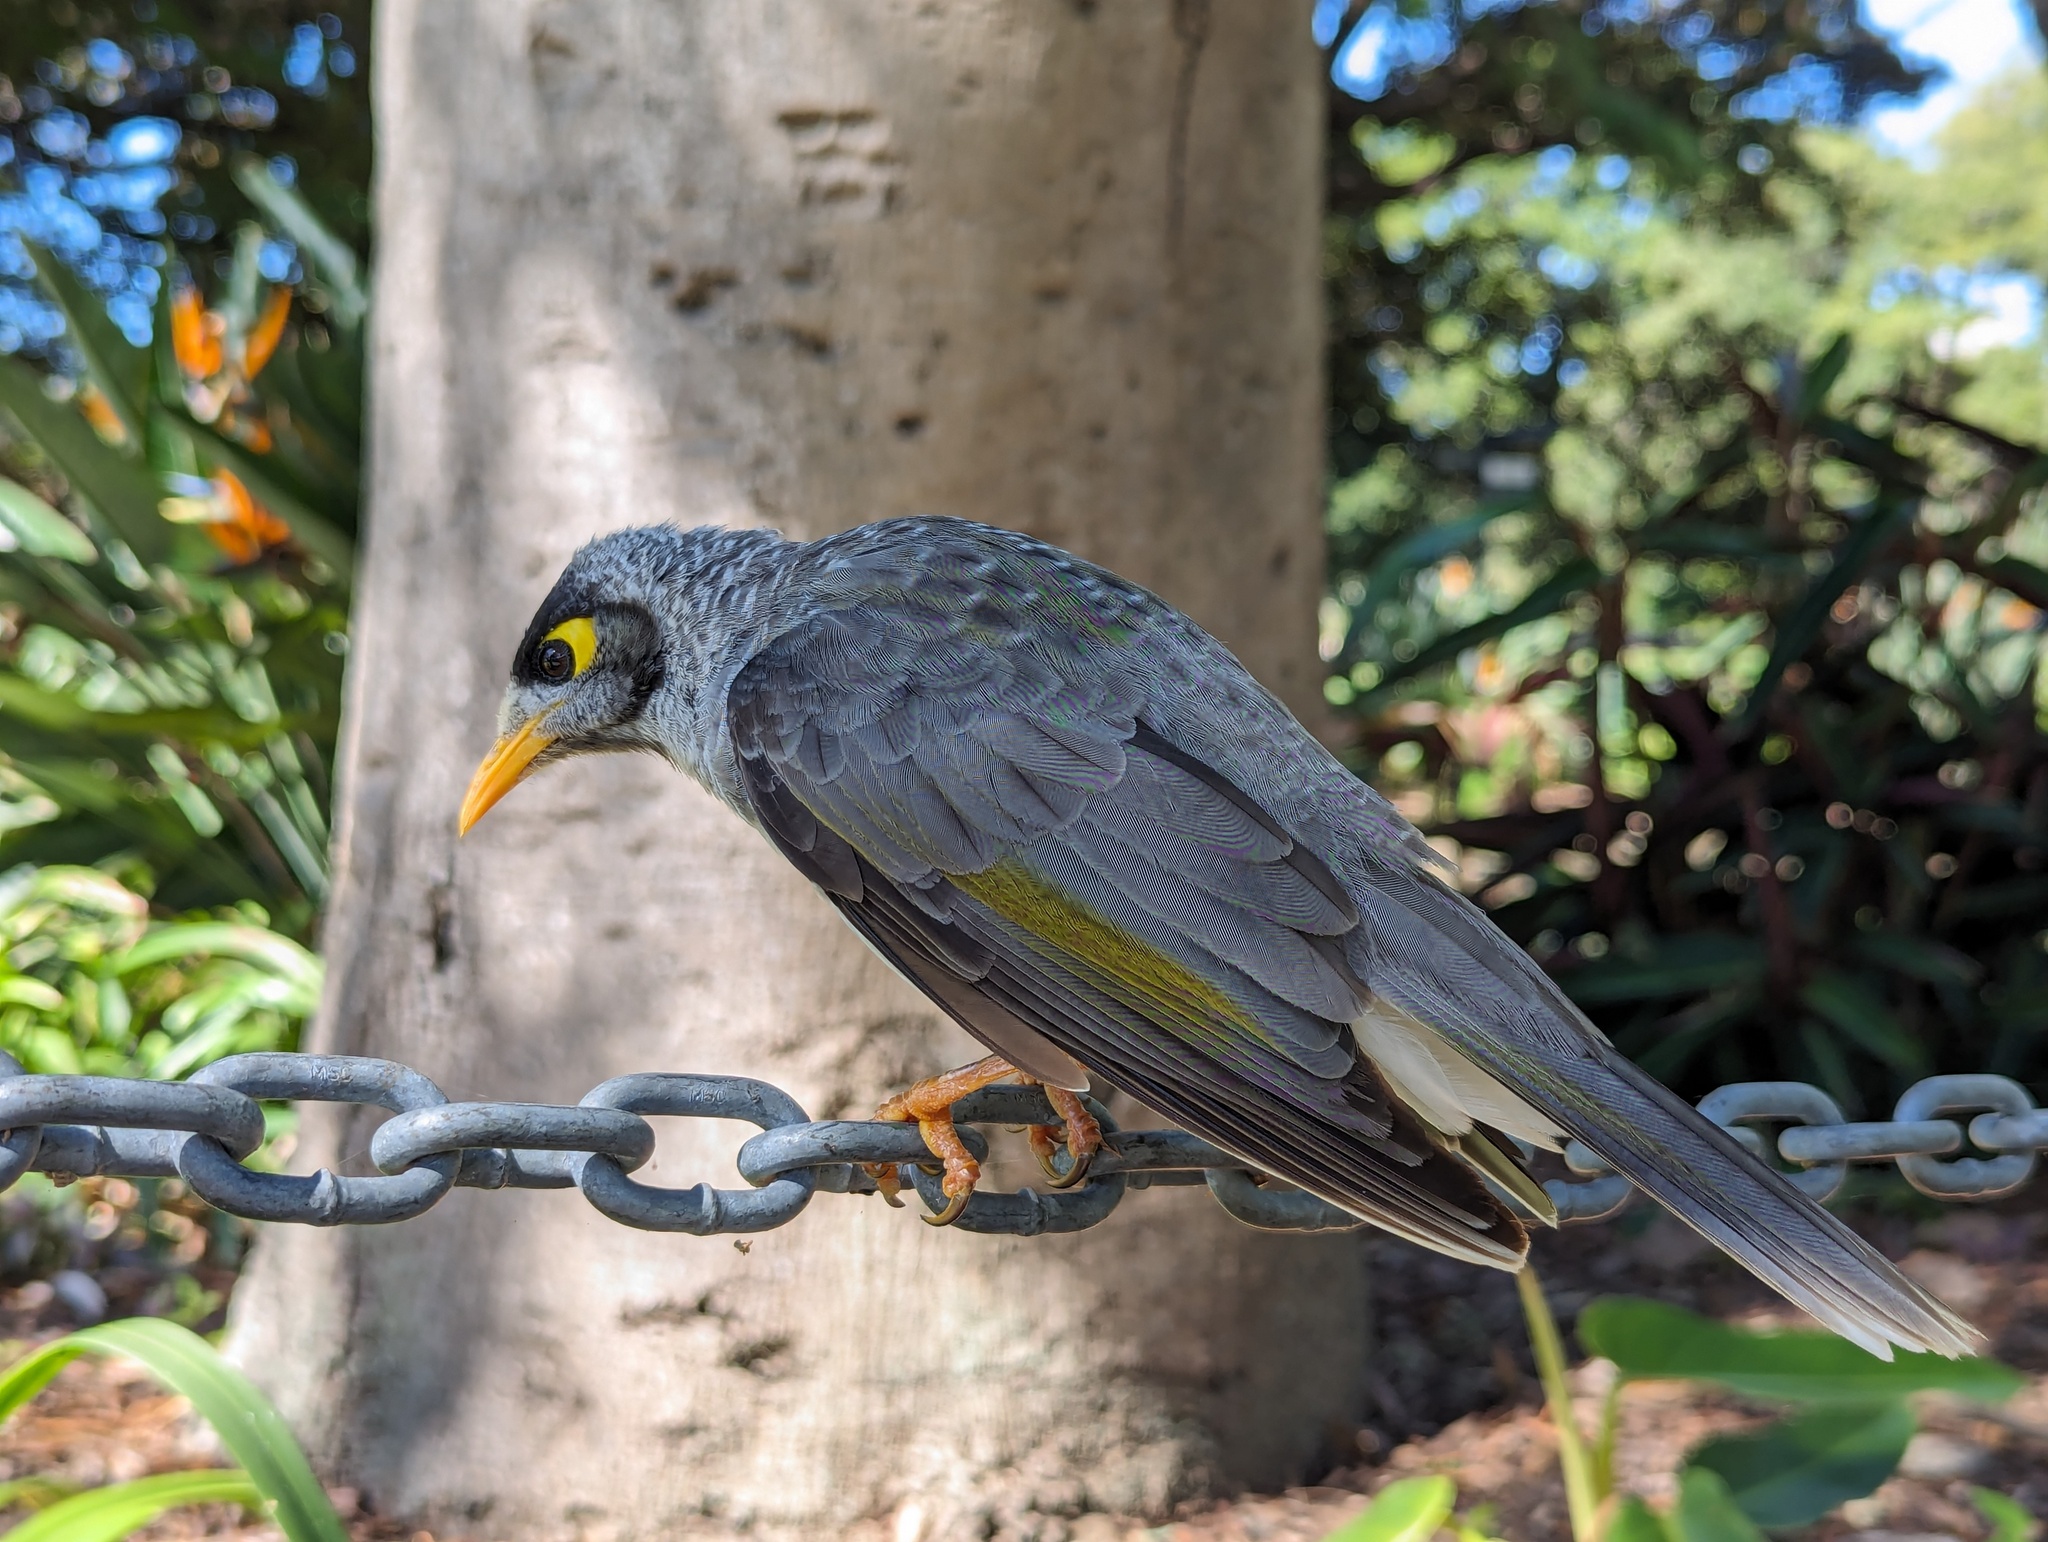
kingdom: Animalia
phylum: Chordata
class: Aves
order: Passeriformes
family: Meliphagidae
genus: Manorina
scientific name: Manorina melanocephala
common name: Noisy miner
